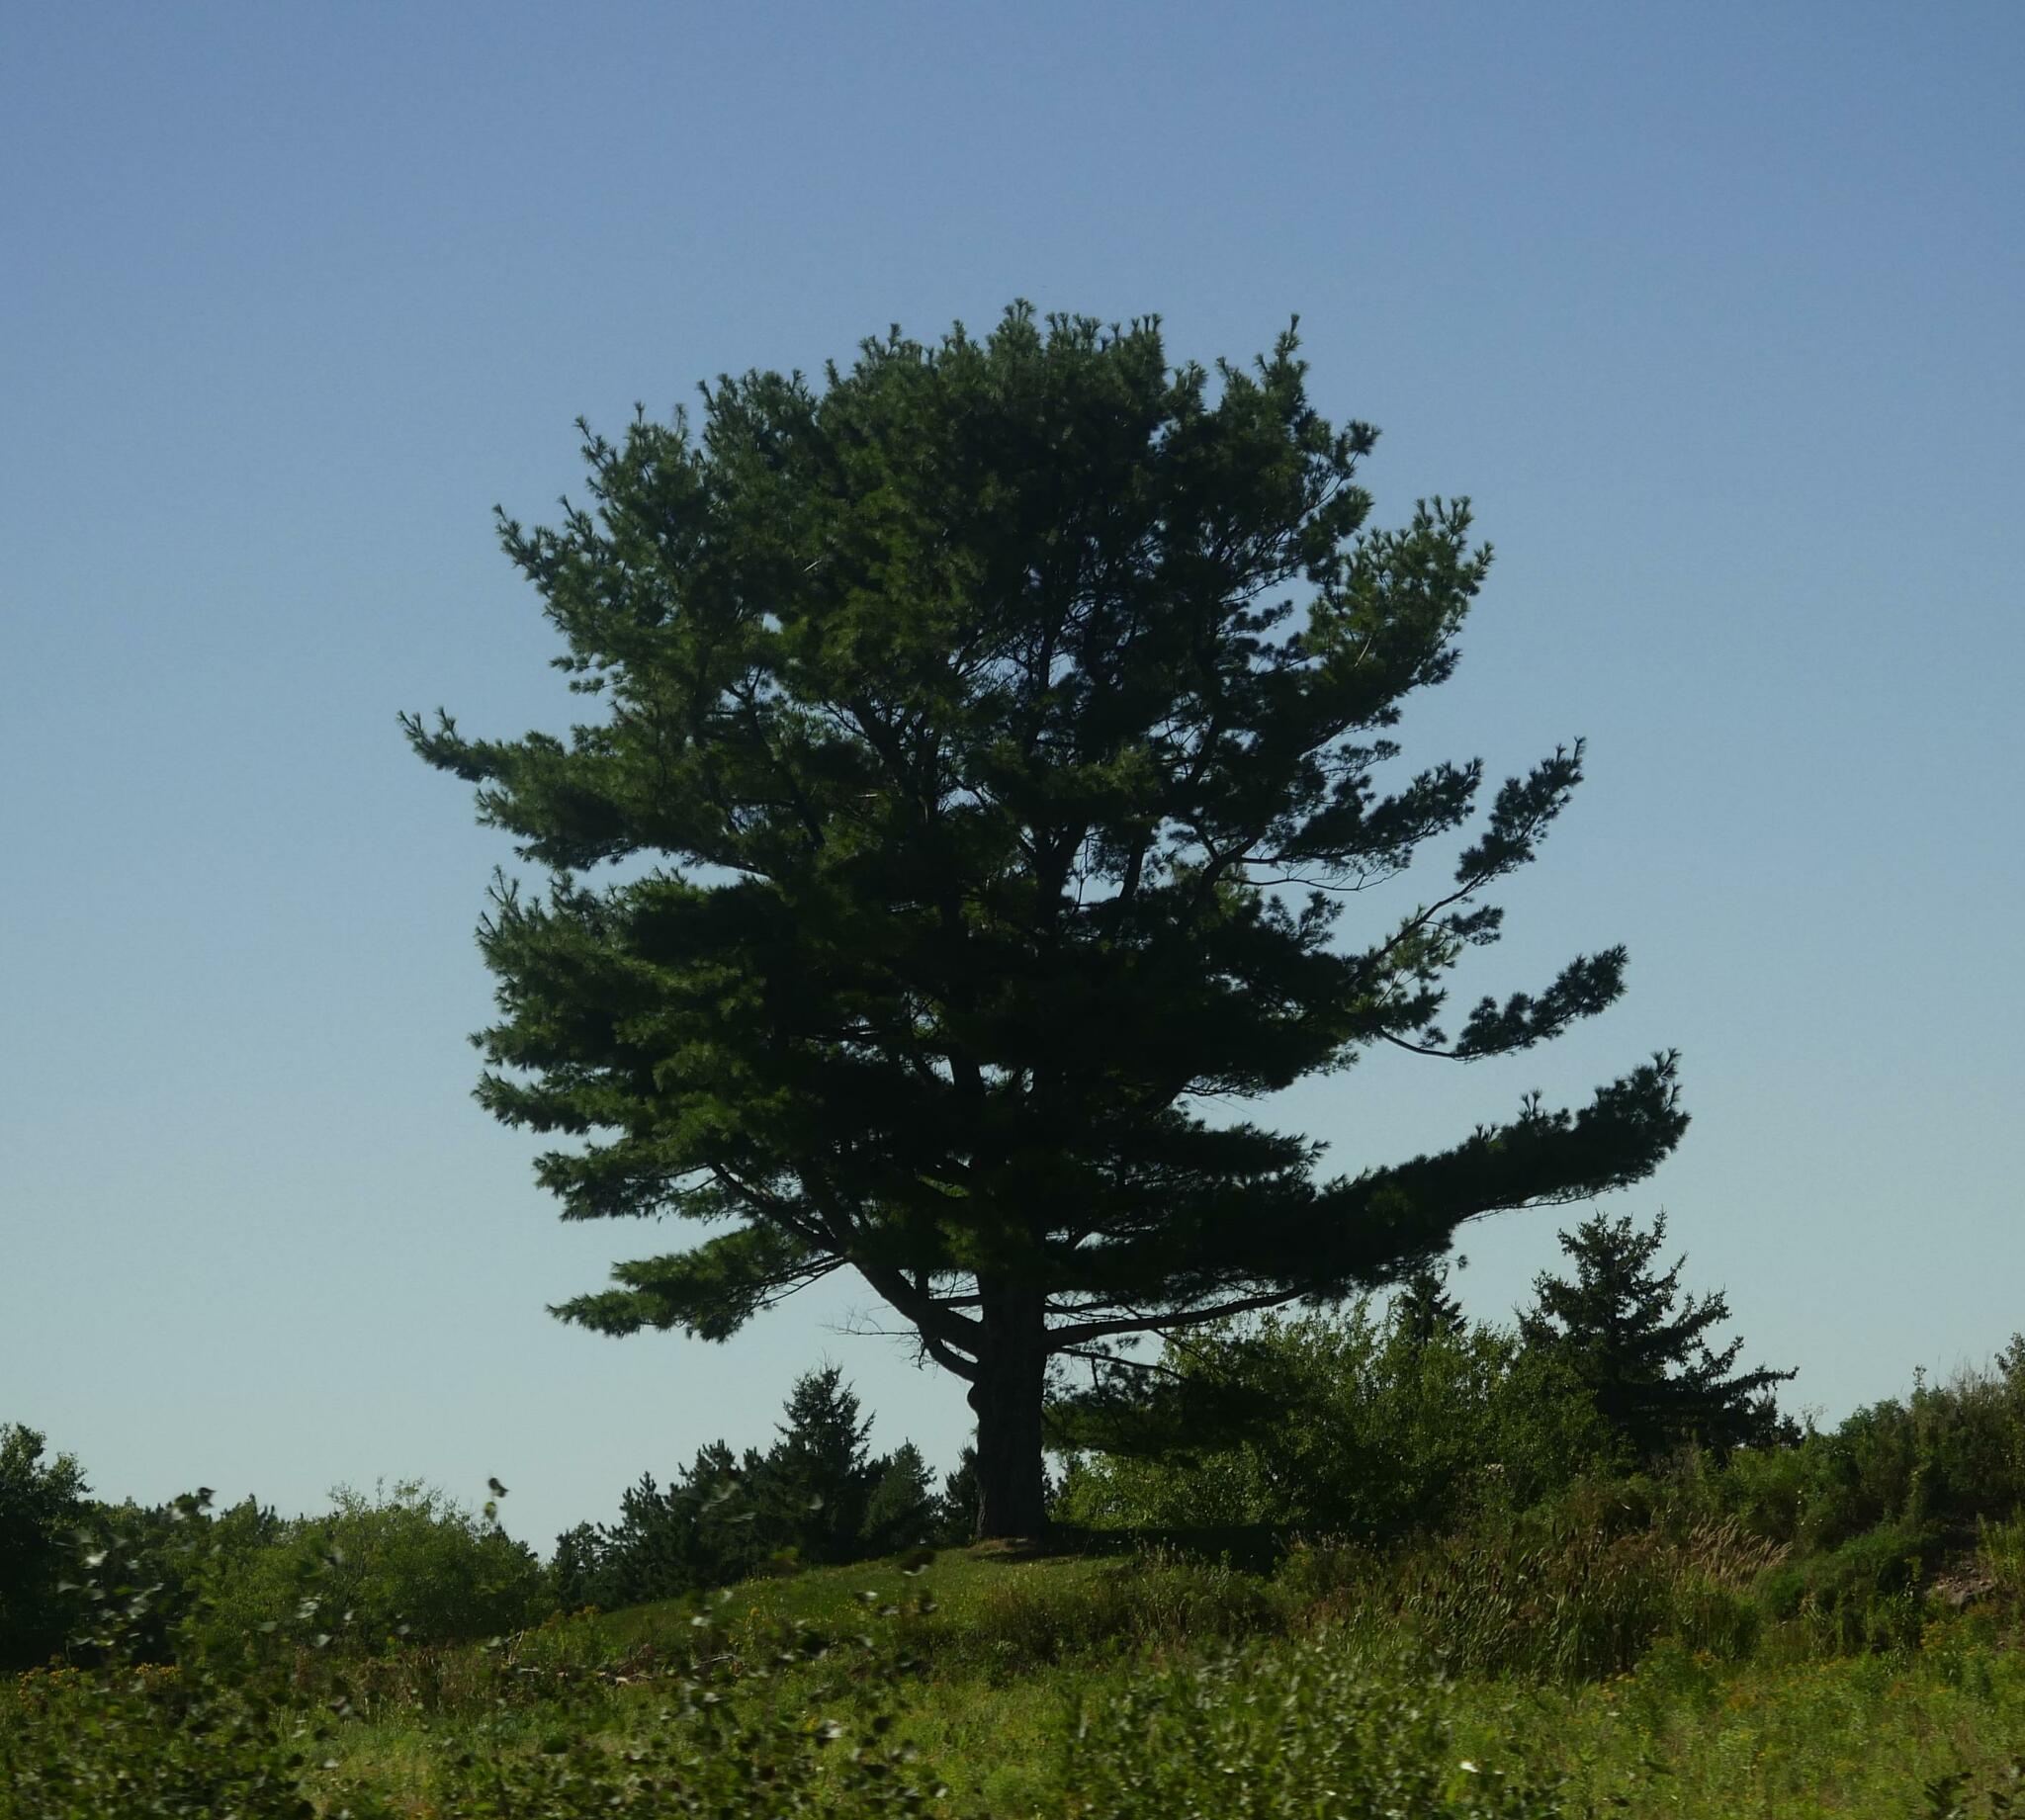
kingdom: Plantae
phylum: Tracheophyta
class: Pinopsida
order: Pinales
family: Pinaceae
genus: Pinus
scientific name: Pinus strobus
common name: Weymouth pine
